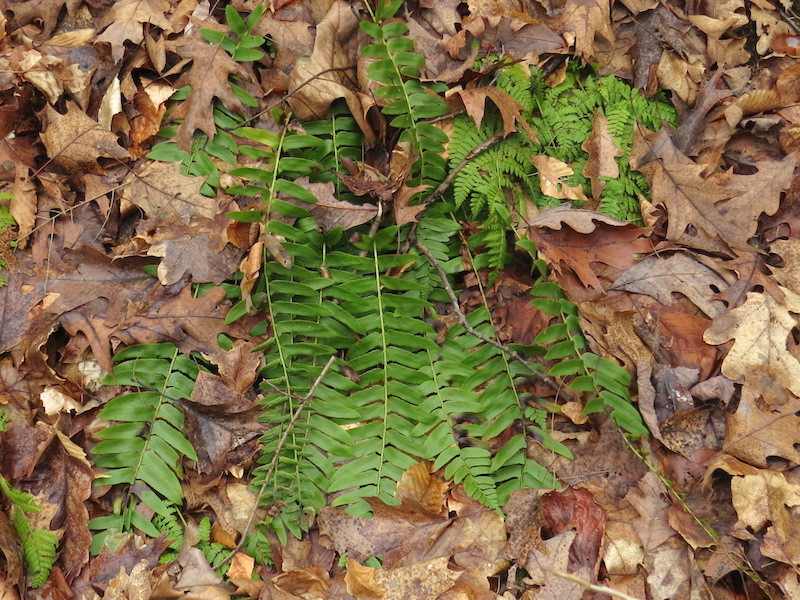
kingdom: Plantae
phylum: Tracheophyta
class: Polypodiopsida
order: Polypodiales
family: Dryopteridaceae
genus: Polystichum
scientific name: Polystichum acrostichoides
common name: Christmas fern
